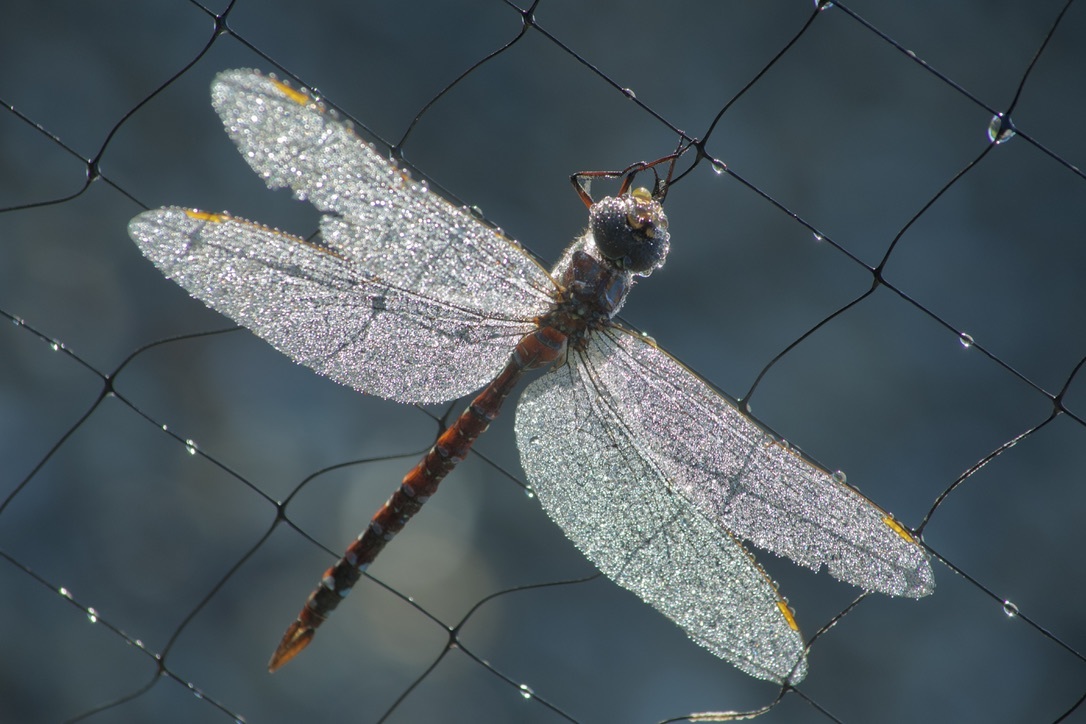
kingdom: Animalia
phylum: Arthropoda
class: Insecta
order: Odonata
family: Aeshnidae
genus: Aeshna
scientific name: Aeshna tuberculifera
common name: Aeschne à tubercules
